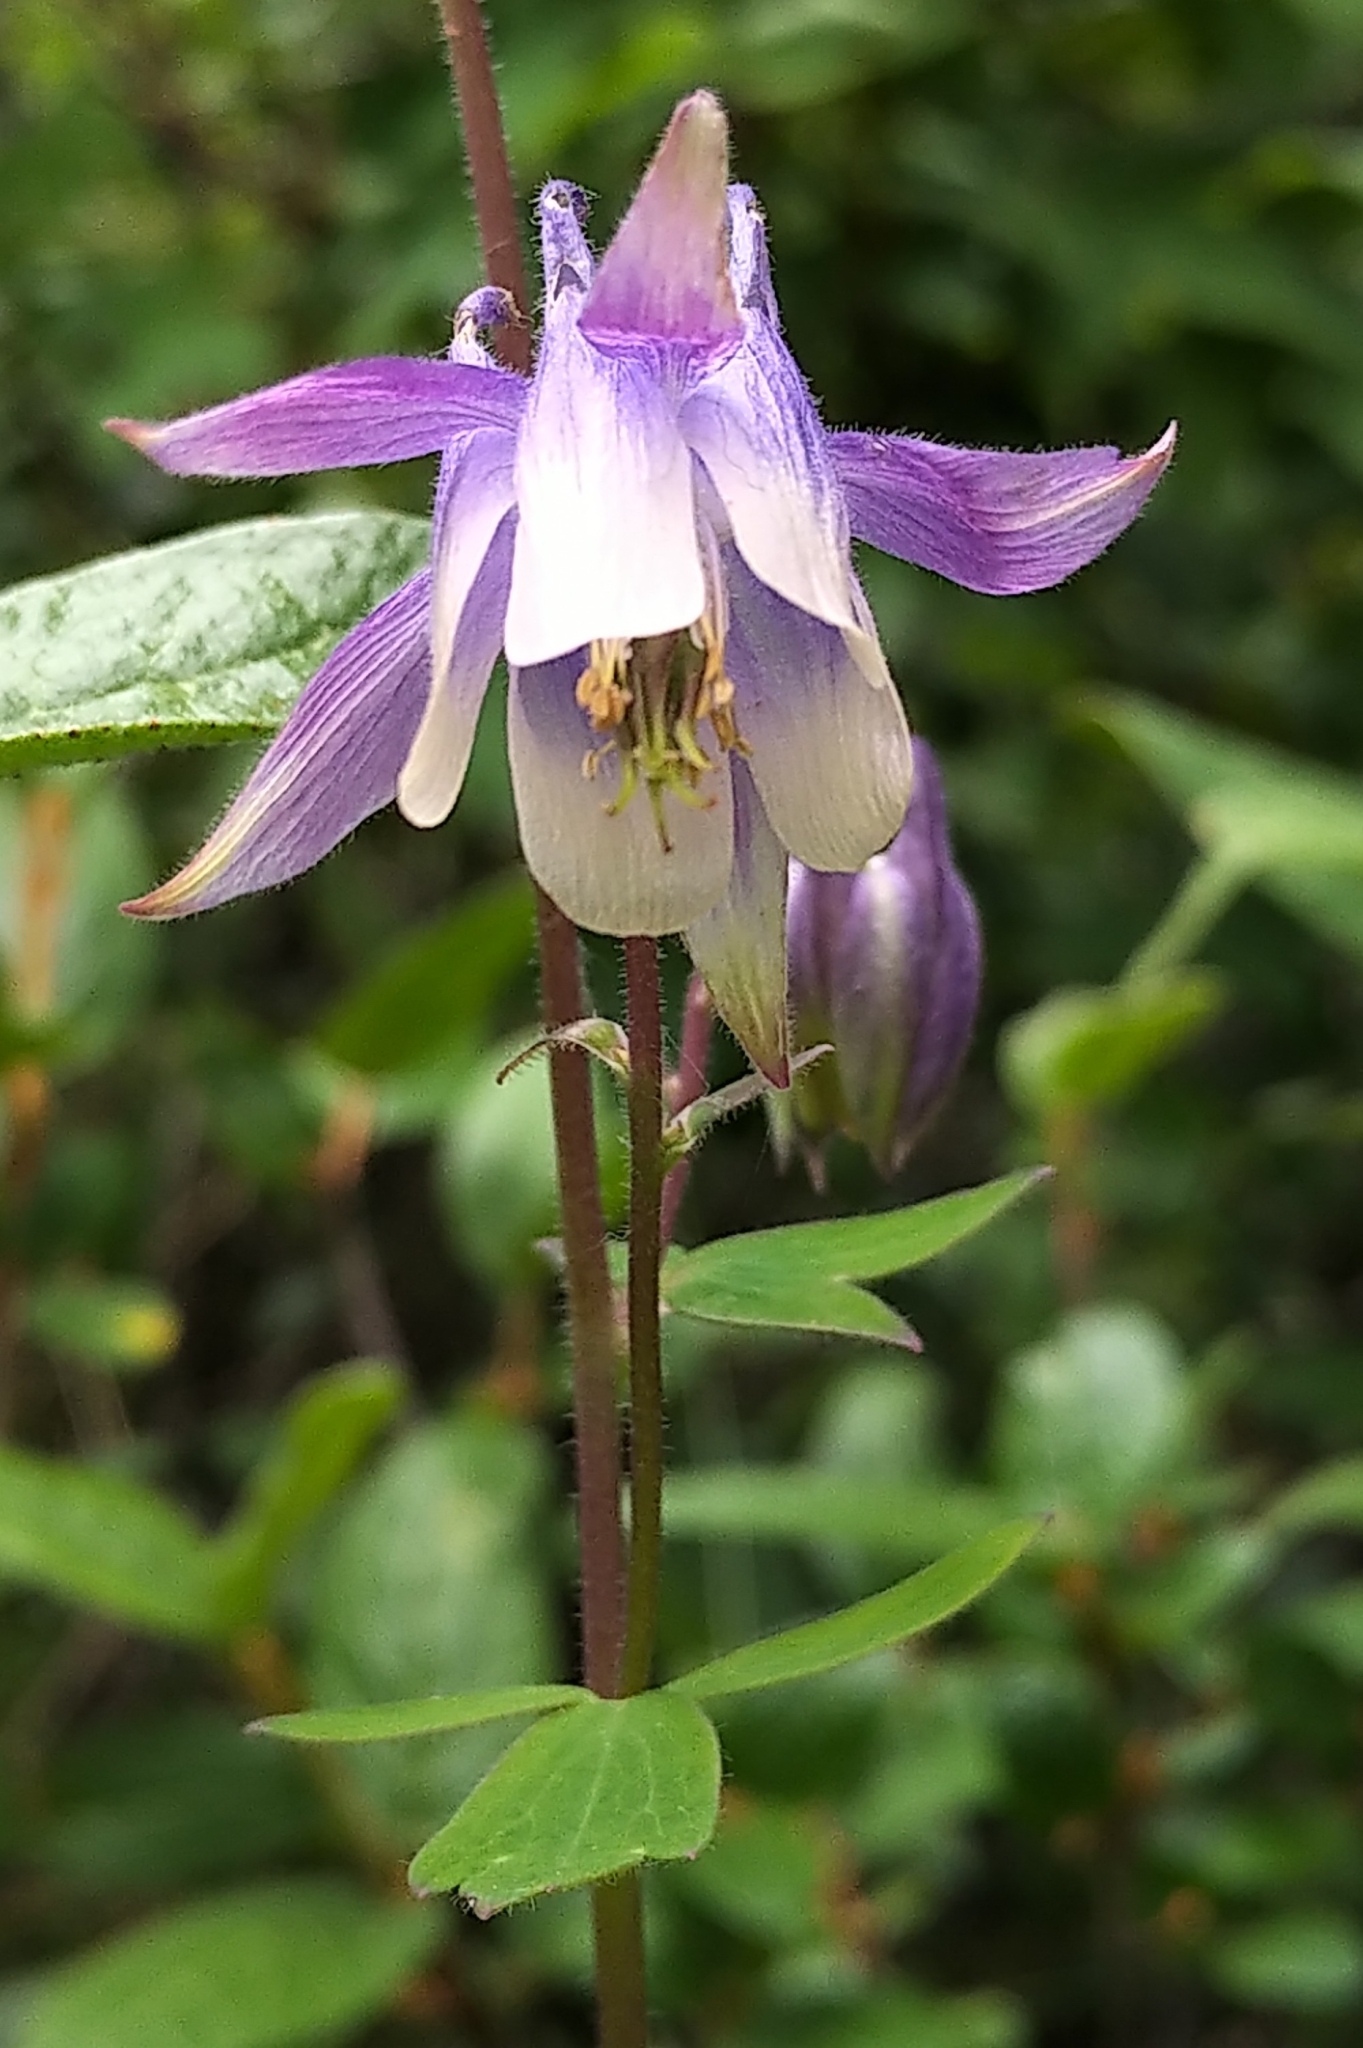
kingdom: Plantae
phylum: Tracheophyta
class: Magnoliopsida
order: Ranunculales
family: Ranunculaceae
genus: Aquilegia
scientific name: Aquilegia brevistyla
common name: Yukon columbine
